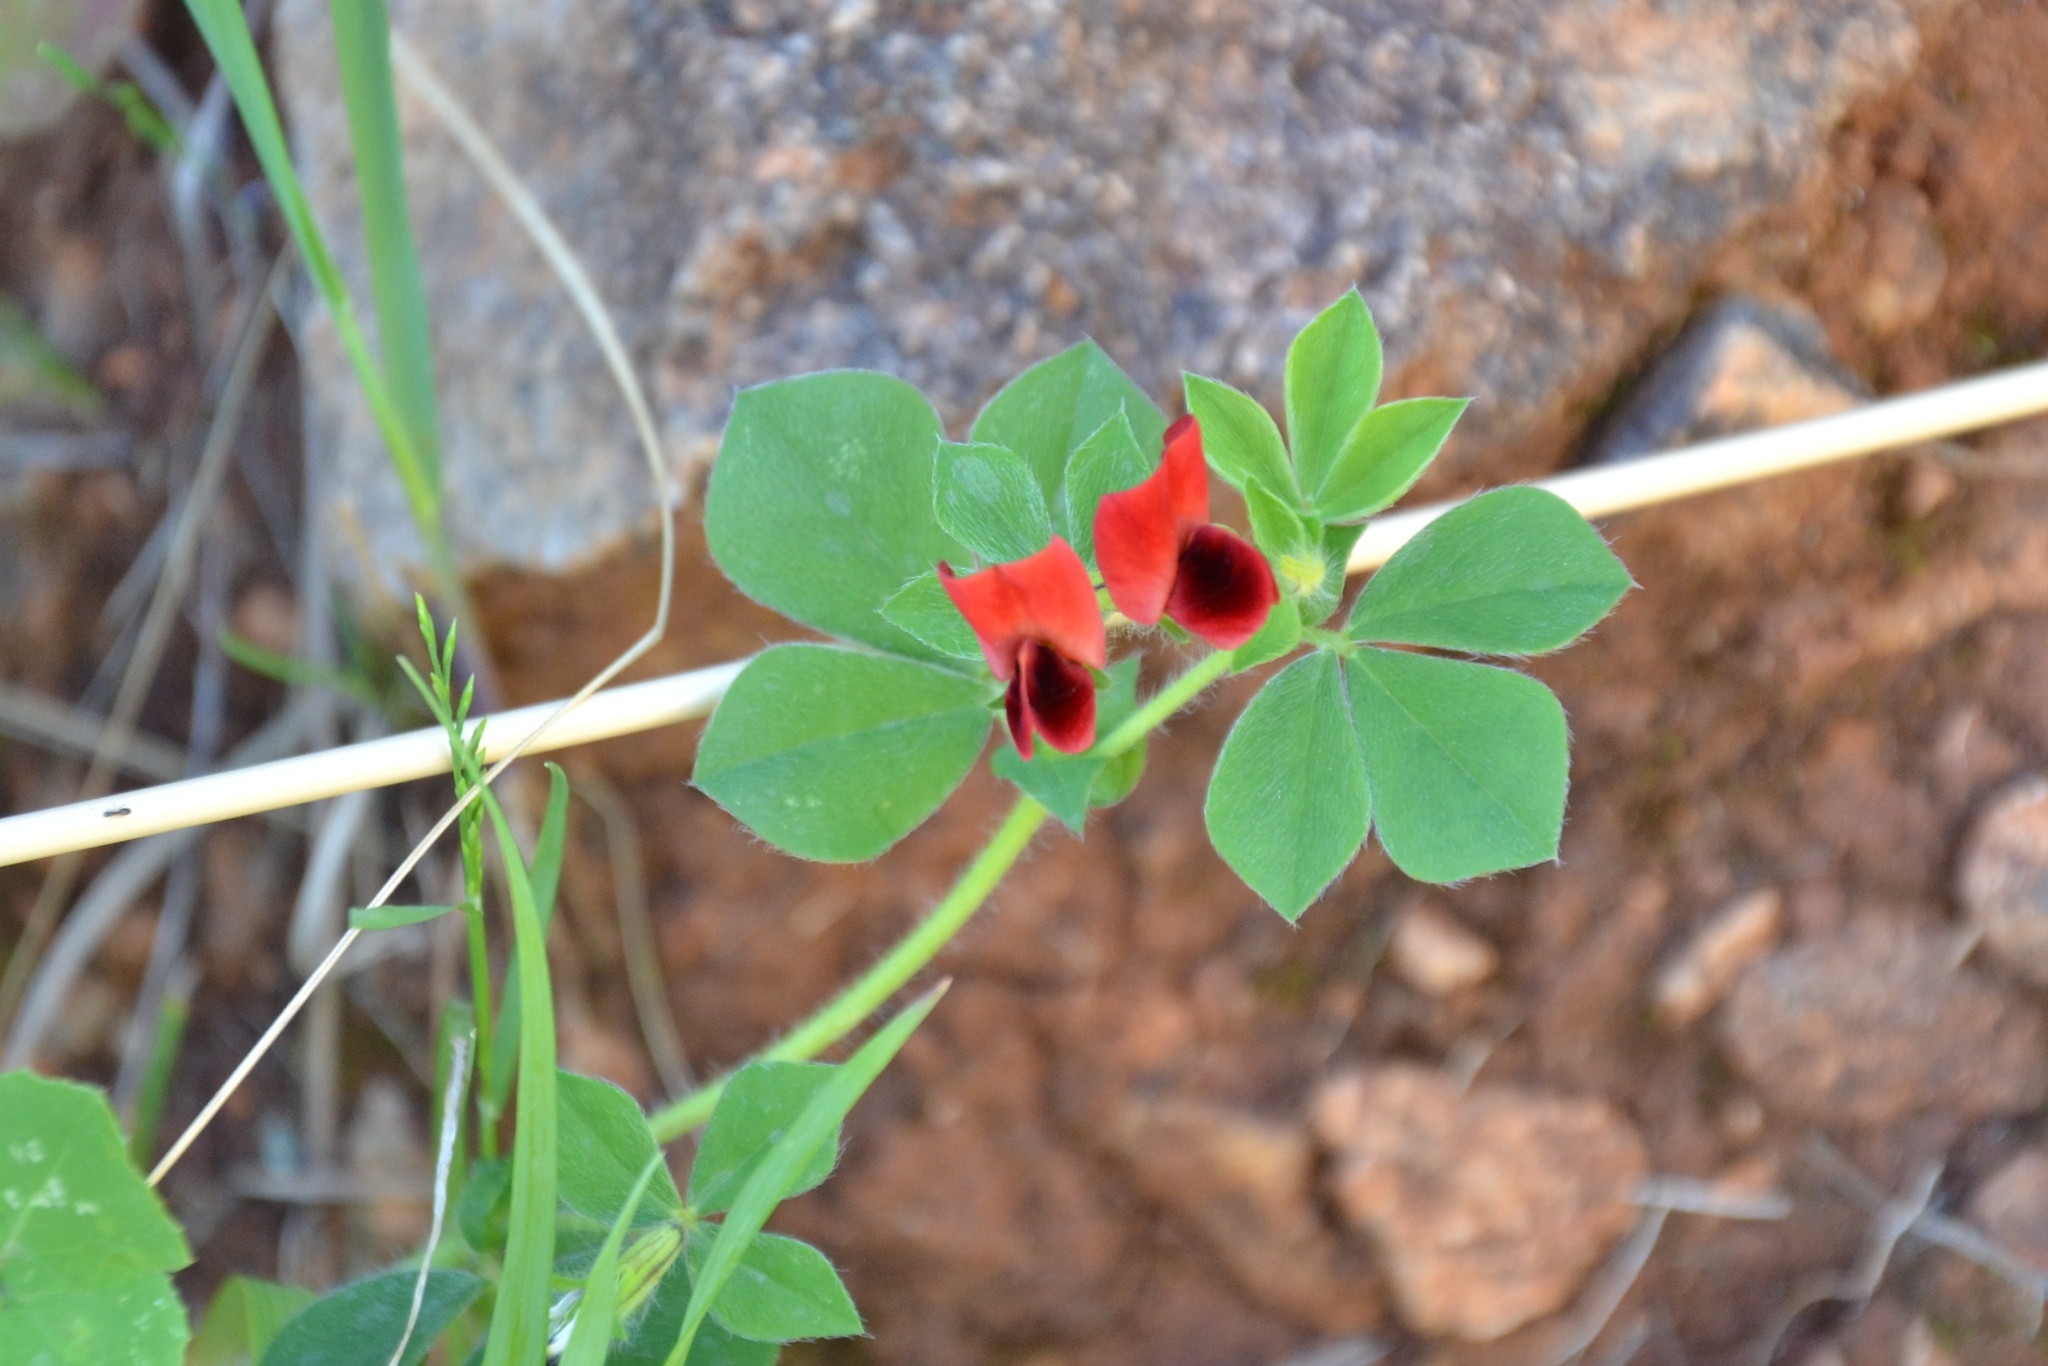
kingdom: Plantae
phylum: Tracheophyta
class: Magnoliopsida
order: Fabales
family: Fabaceae
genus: Lotus
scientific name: Lotus tetragonolobus
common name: Asparagus-pea
